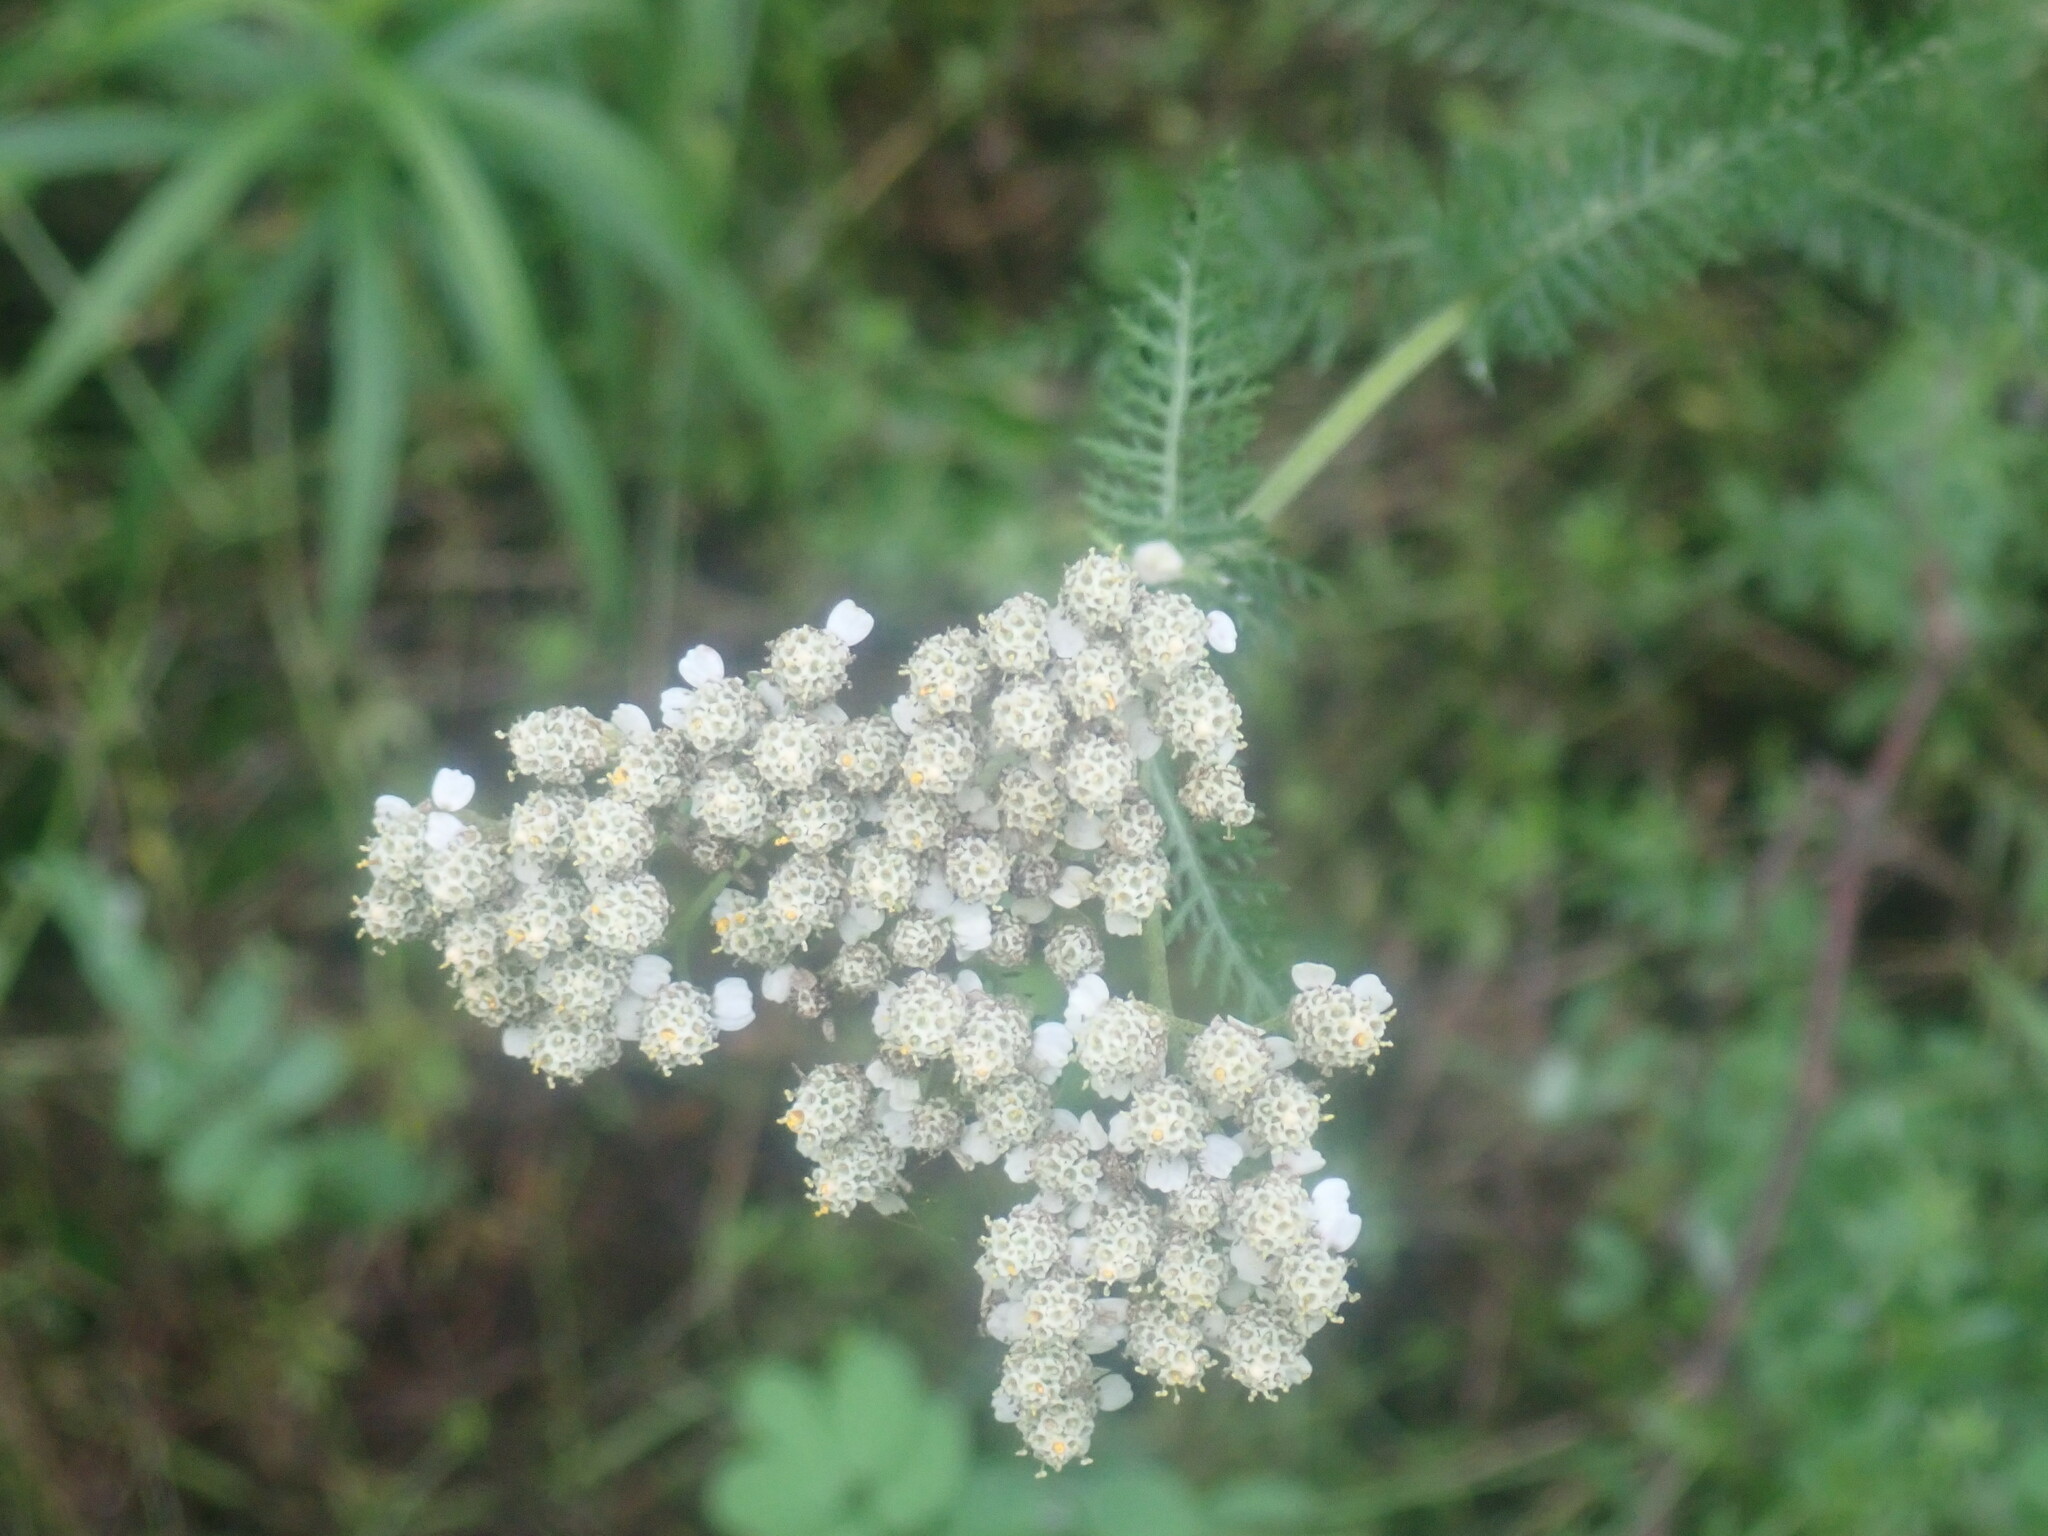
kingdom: Plantae
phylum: Tracheophyta
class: Magnoliopsida
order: Asterales
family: Asteraceae
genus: Achillea
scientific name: Achillea millefolium
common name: Yarrow
